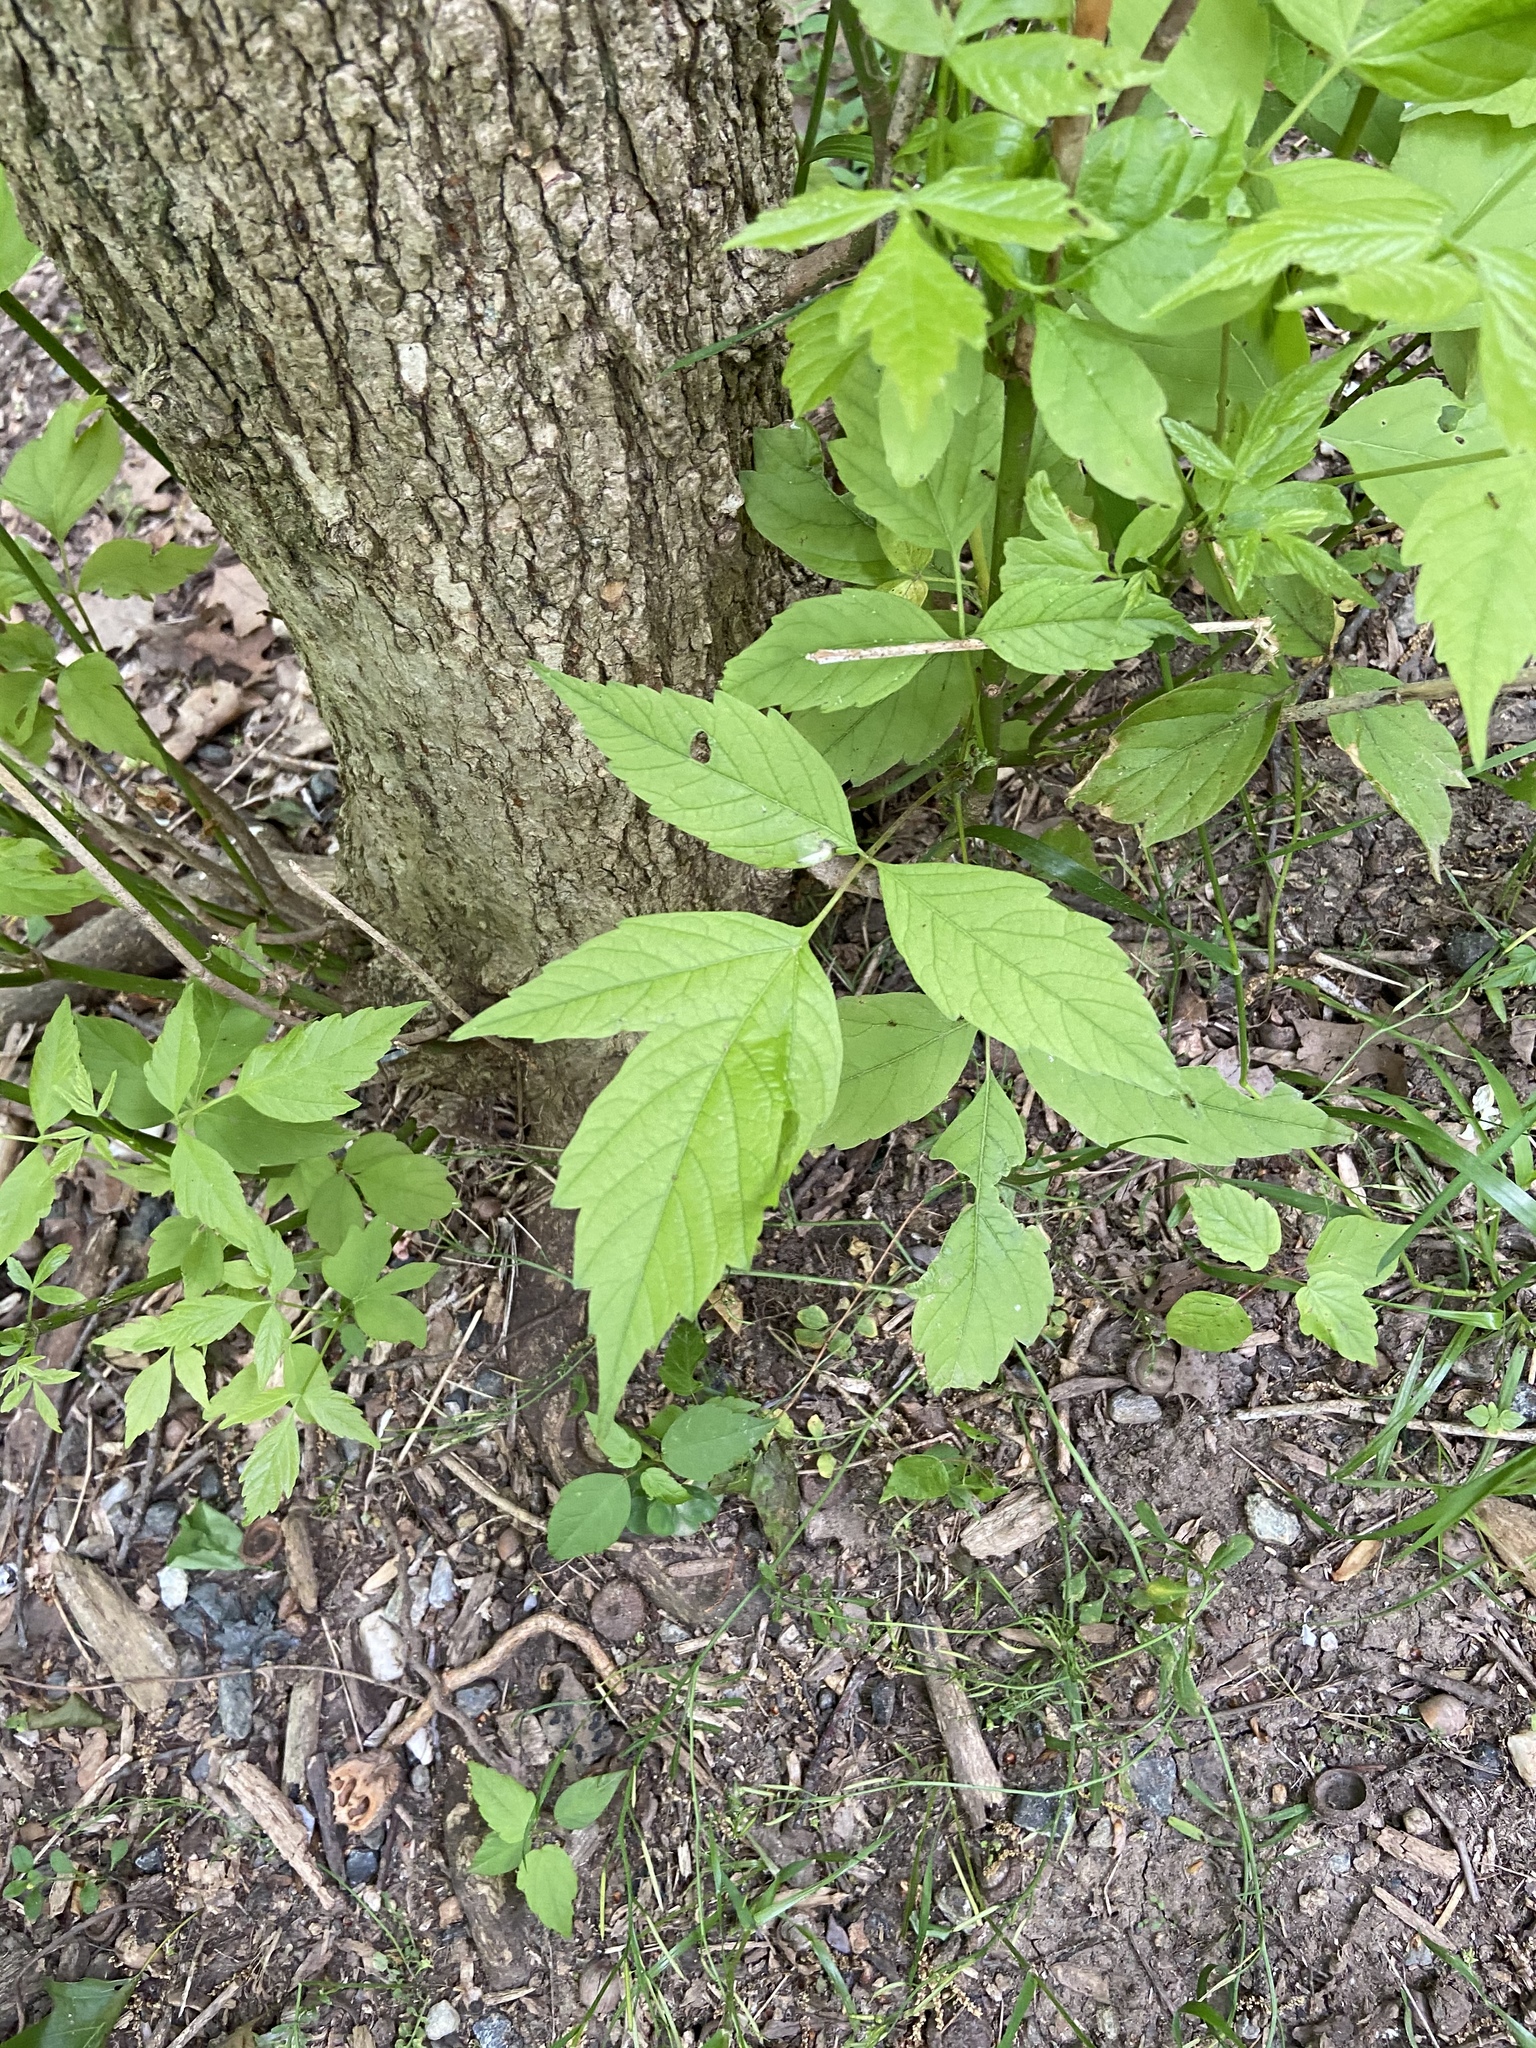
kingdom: Plantae
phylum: Tracheophyta
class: Magnoliopsida
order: Sapindales
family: Sapindaceae
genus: Acer
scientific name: Acer negundo
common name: Ashleaf maple
